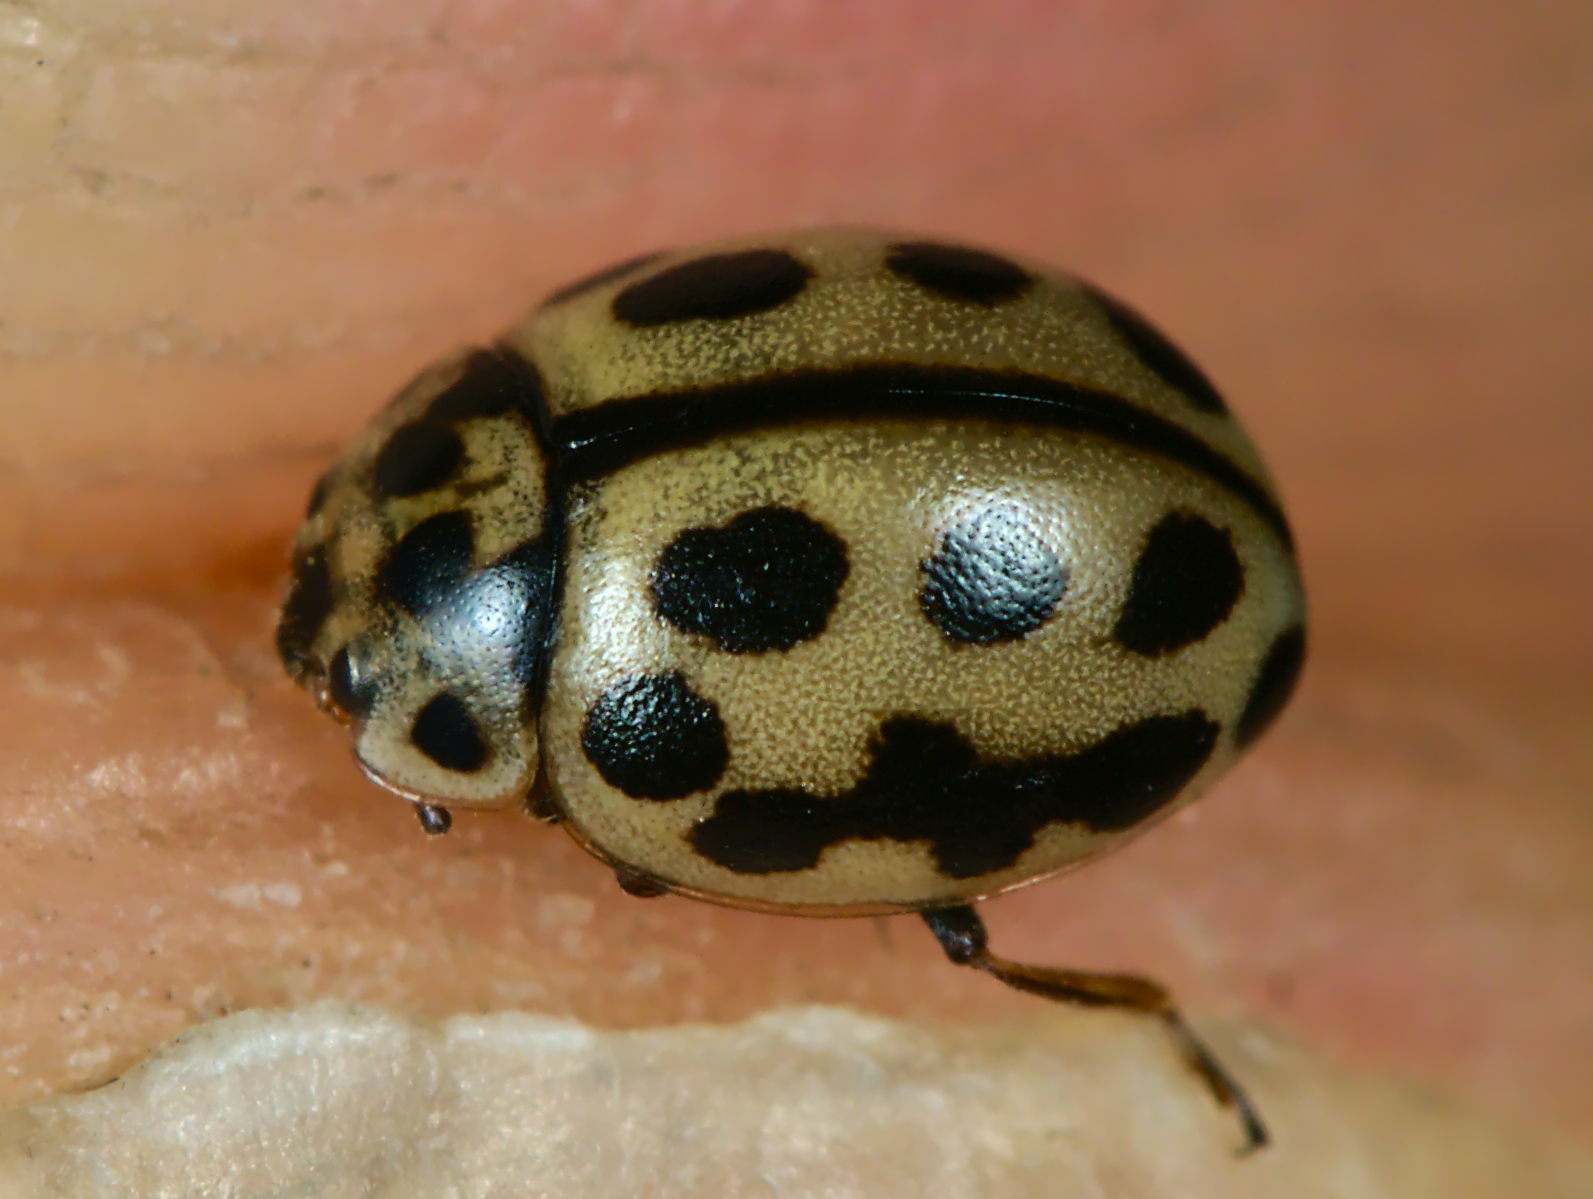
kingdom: Animalia
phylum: Arthropoda
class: Insecta
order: Coleoptera
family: Coccinellidae
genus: Tytthaspis
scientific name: Tytthaspis sedecimpunctata
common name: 16-spot ladybird
